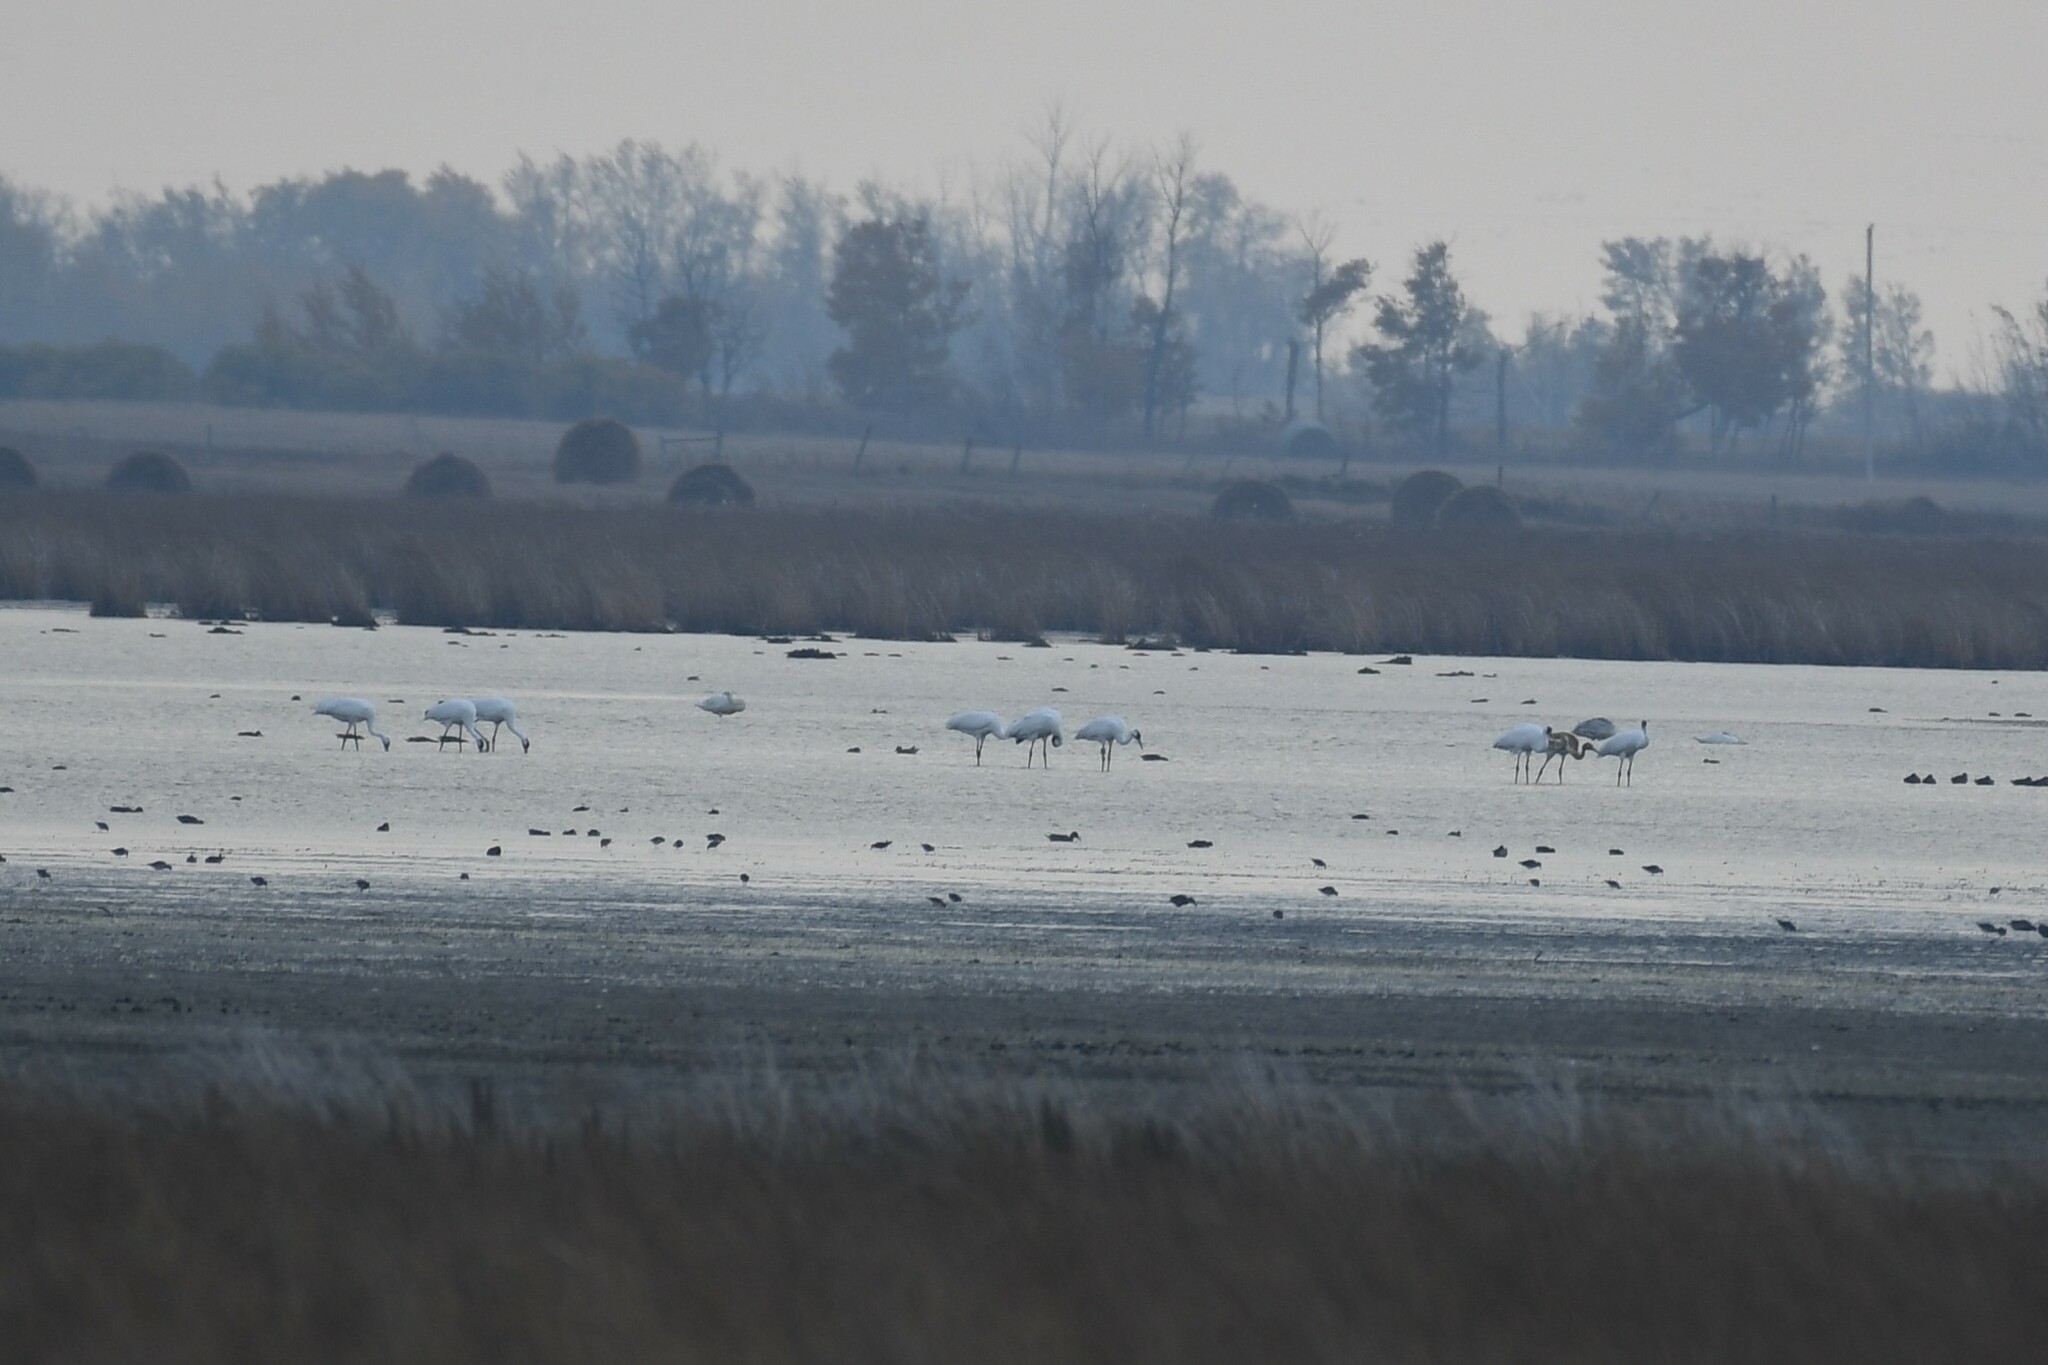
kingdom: Animalia
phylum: Chordata
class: Aves
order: Gruiformes
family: Gruidae
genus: Grus
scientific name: Grus americana
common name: Whooping crane
